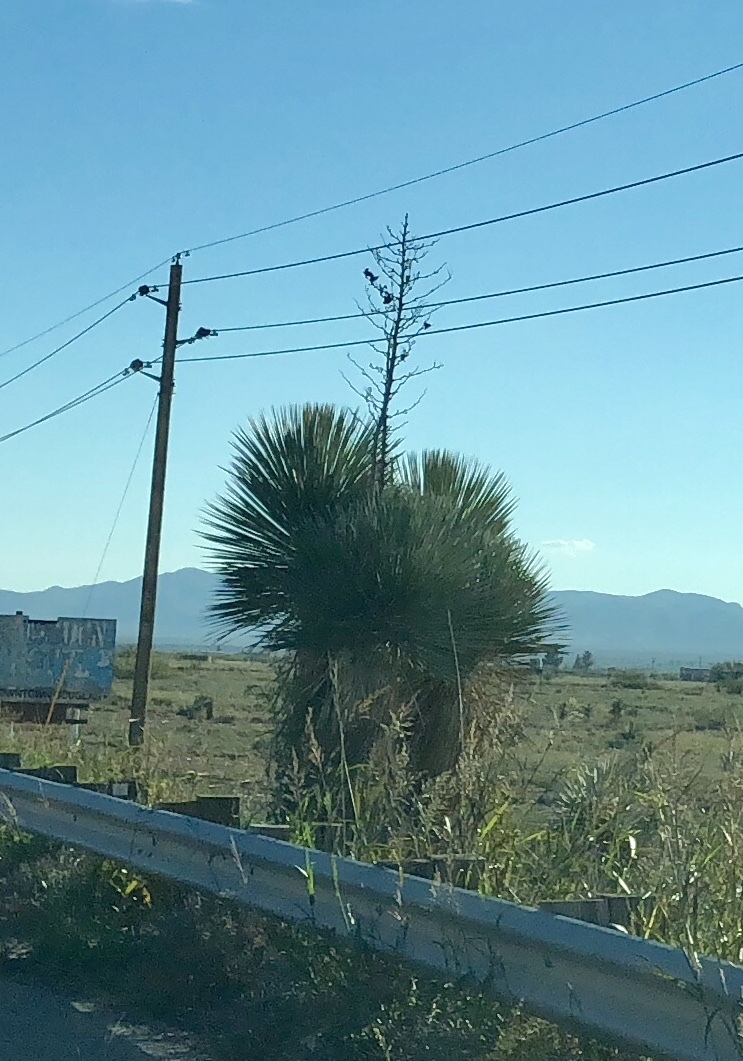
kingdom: Plantae
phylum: Tracheophyta
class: Liliopsida
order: Asparagales
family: Asparagaceae
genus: Yucca
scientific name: Yucca elata
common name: Palmella
